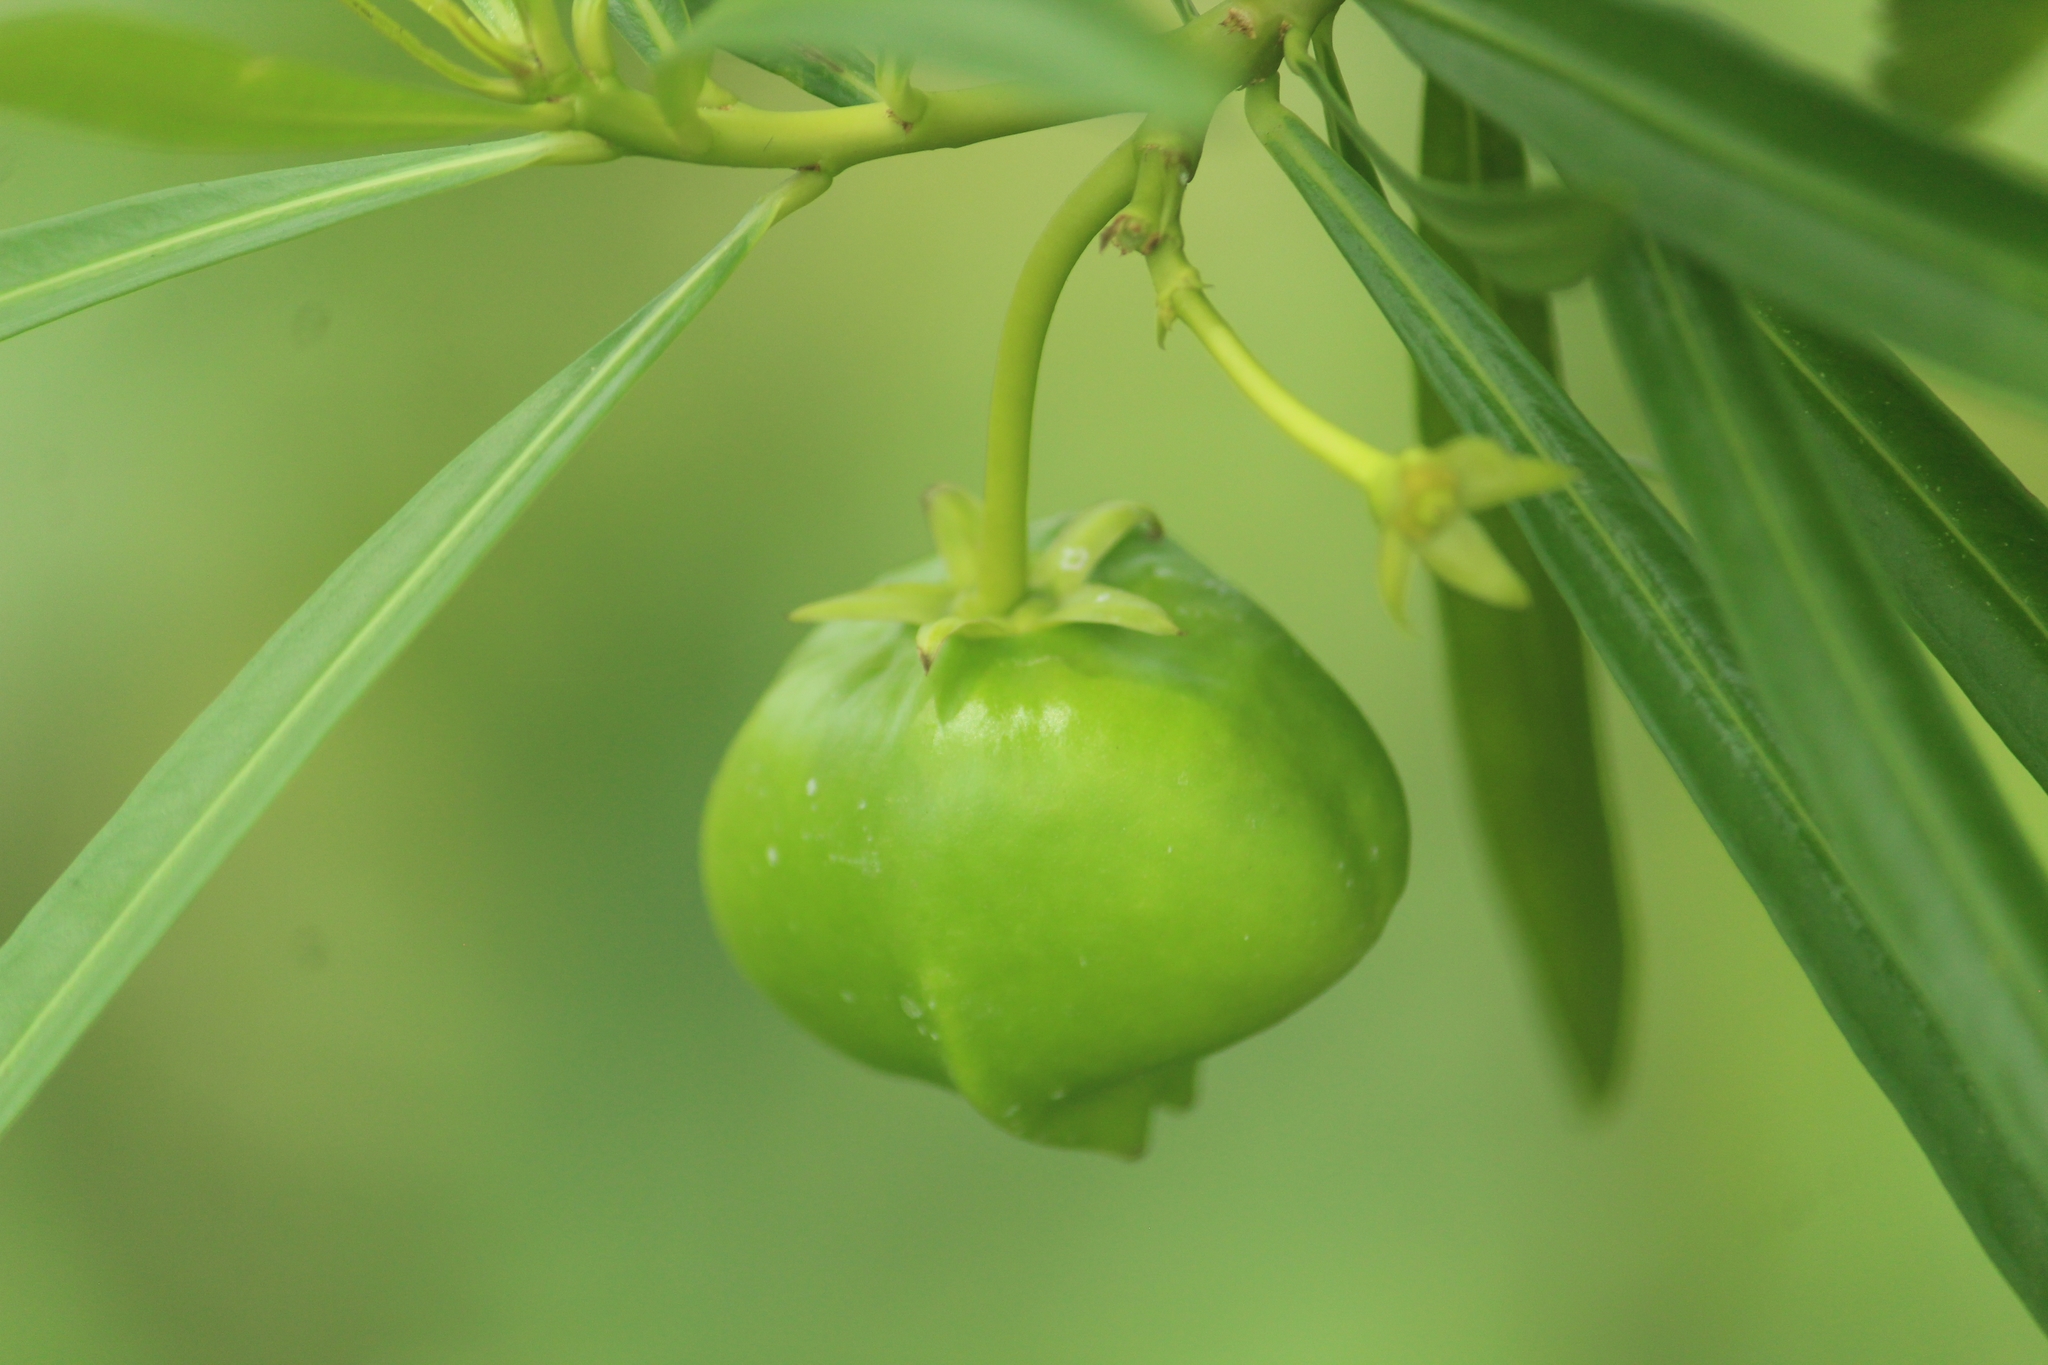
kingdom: Plantae
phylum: Tracheophyta
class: Magnoliopsida
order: Gentianales
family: Apocynaceae
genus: Cascabela
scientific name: Cascabela thevetia
